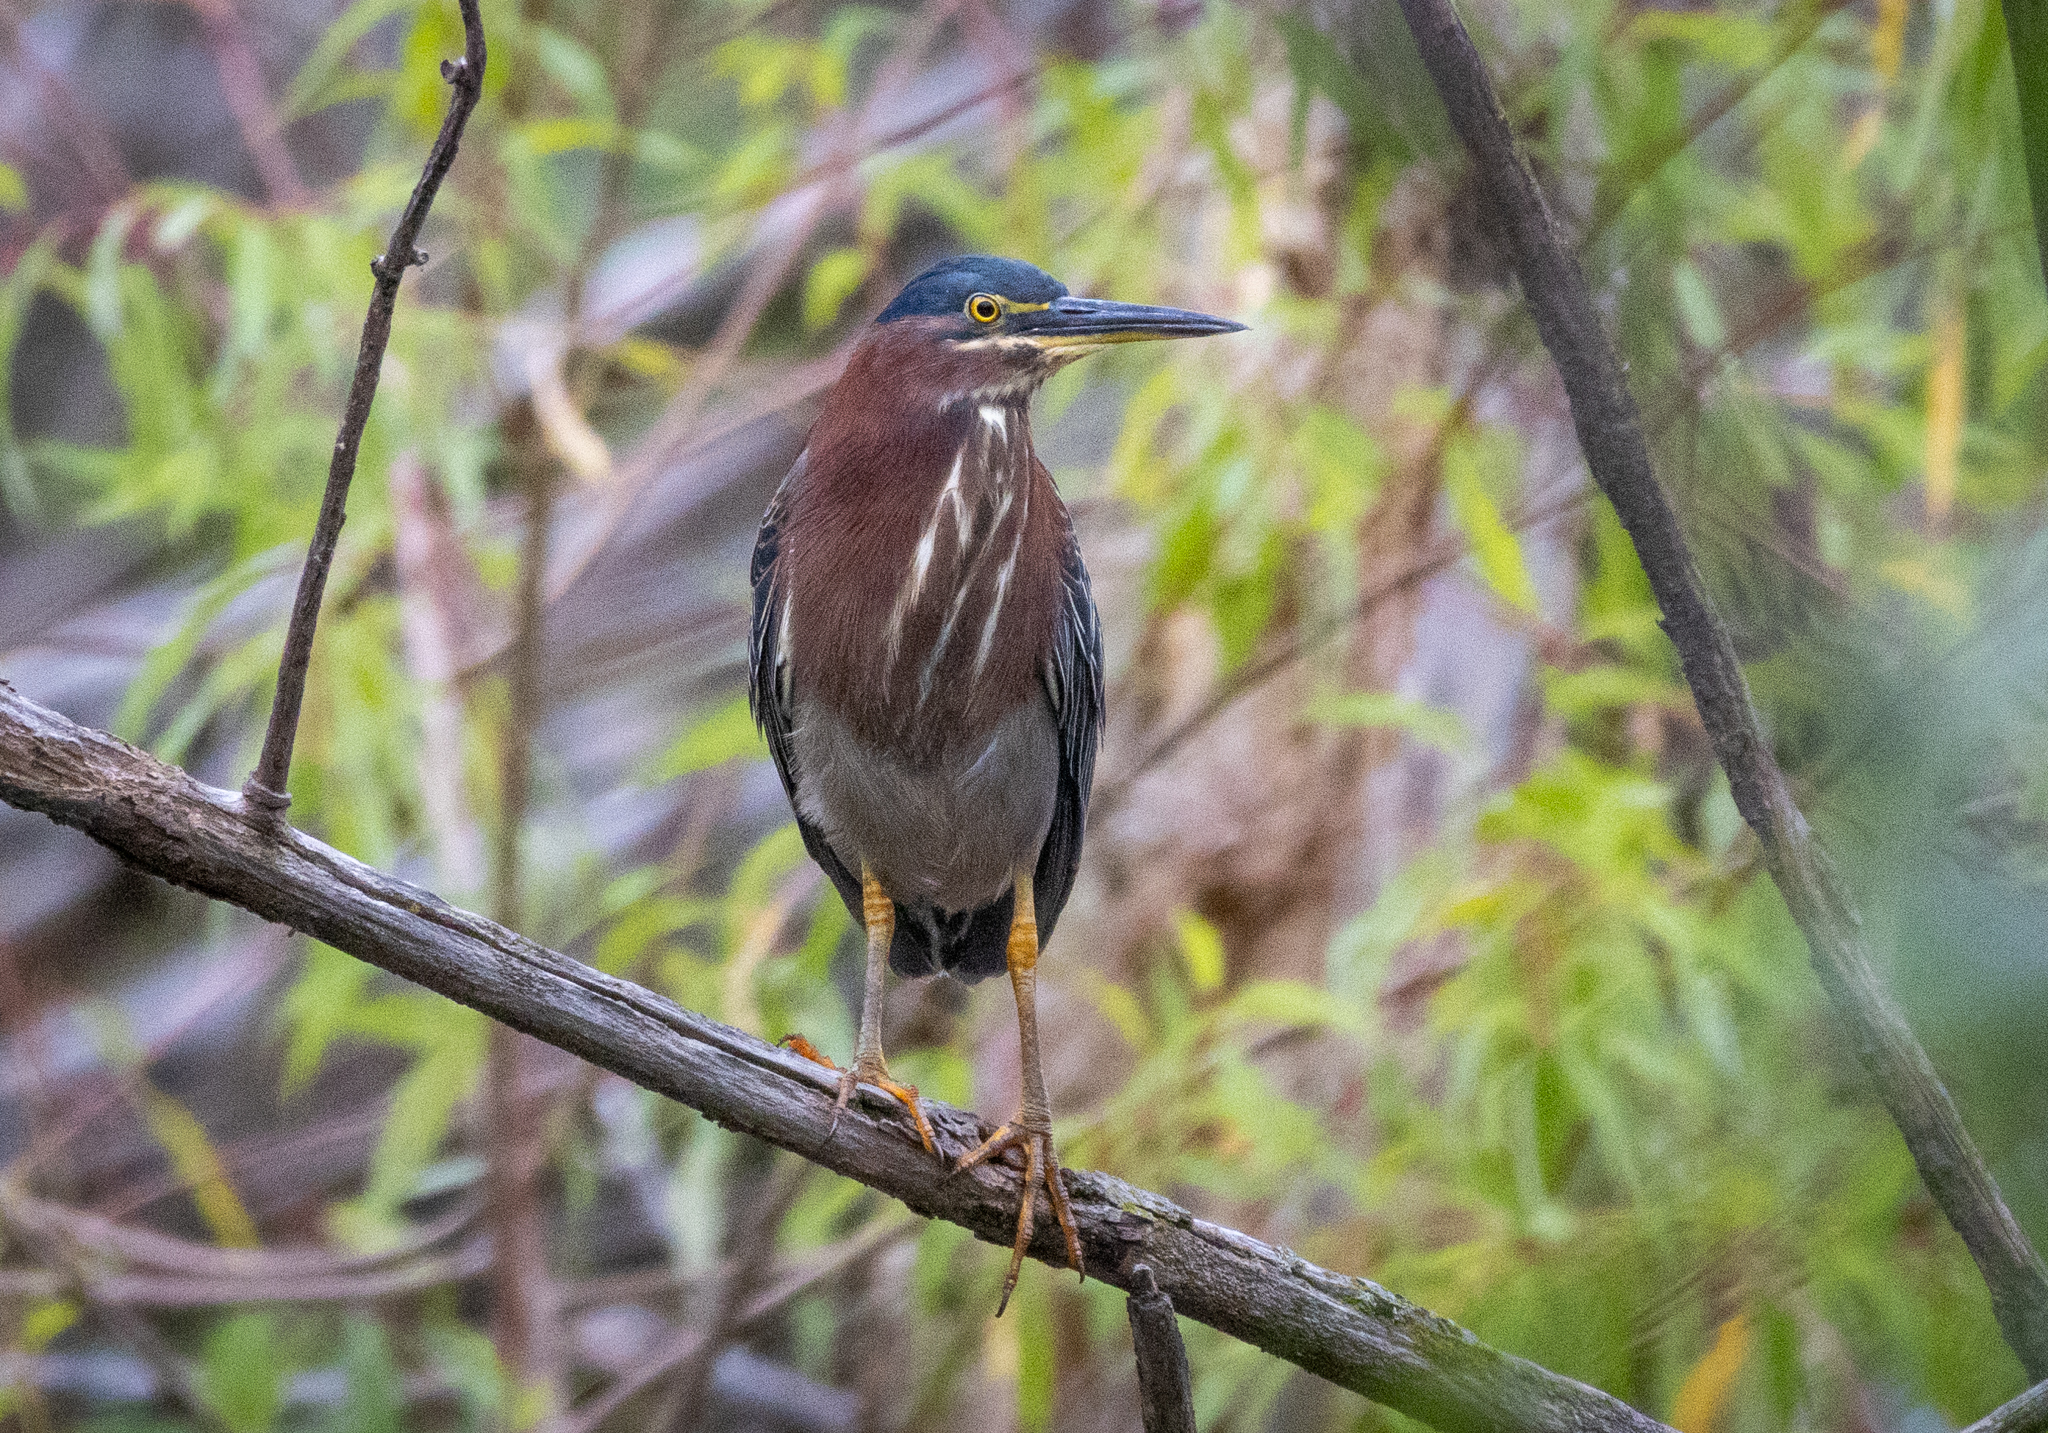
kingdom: Animalia
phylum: Chordata
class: Aves
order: Pelecaniformes
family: Ardeidae
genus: Butorides
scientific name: Butorides virescens
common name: Green heron
